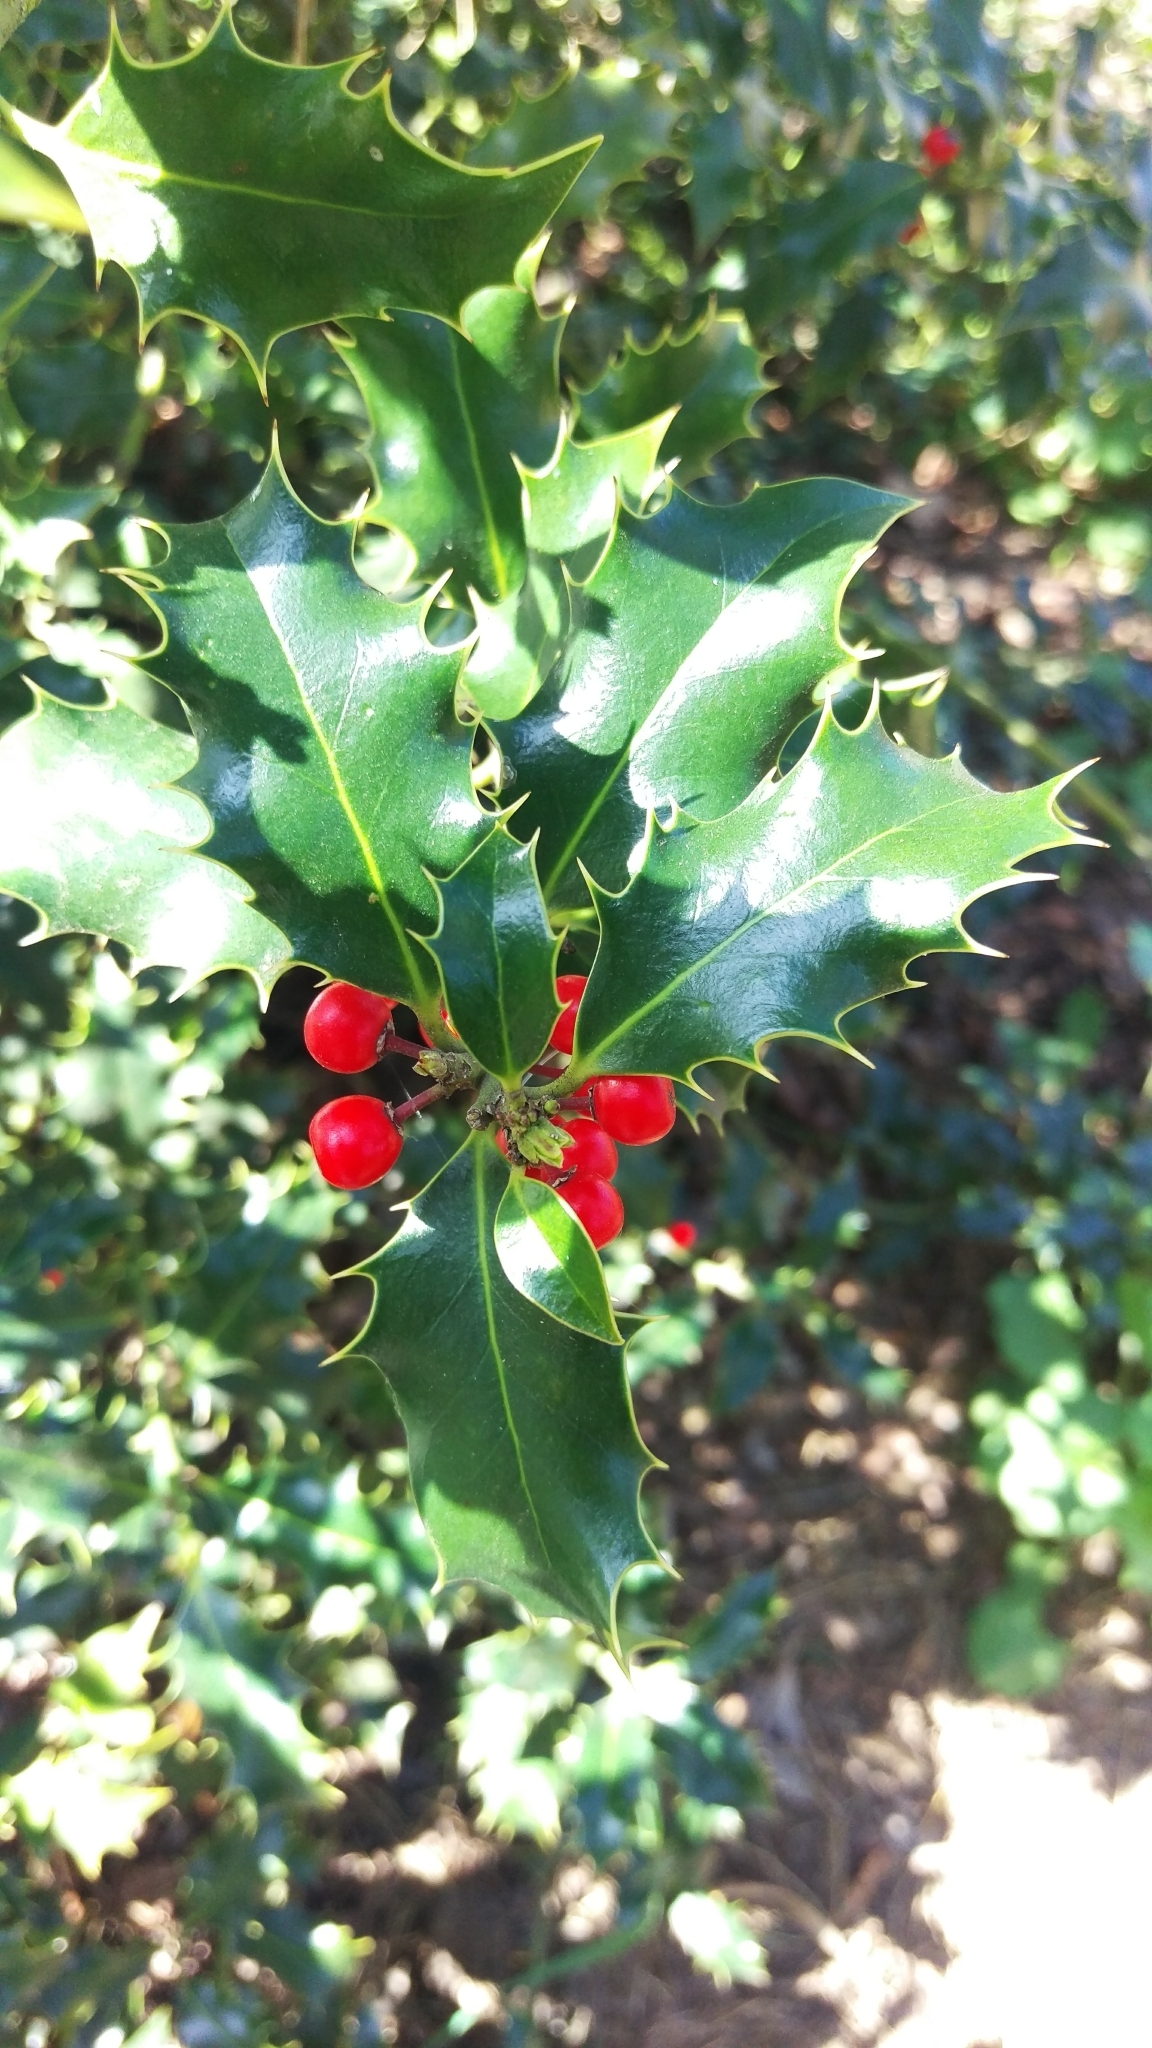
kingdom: Plantae
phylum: Tracheophyta
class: Magnoliopsida
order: Aquifoliales
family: Aquifoliaceae
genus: Ilex
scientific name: Ilex aquifolium
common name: English holly
